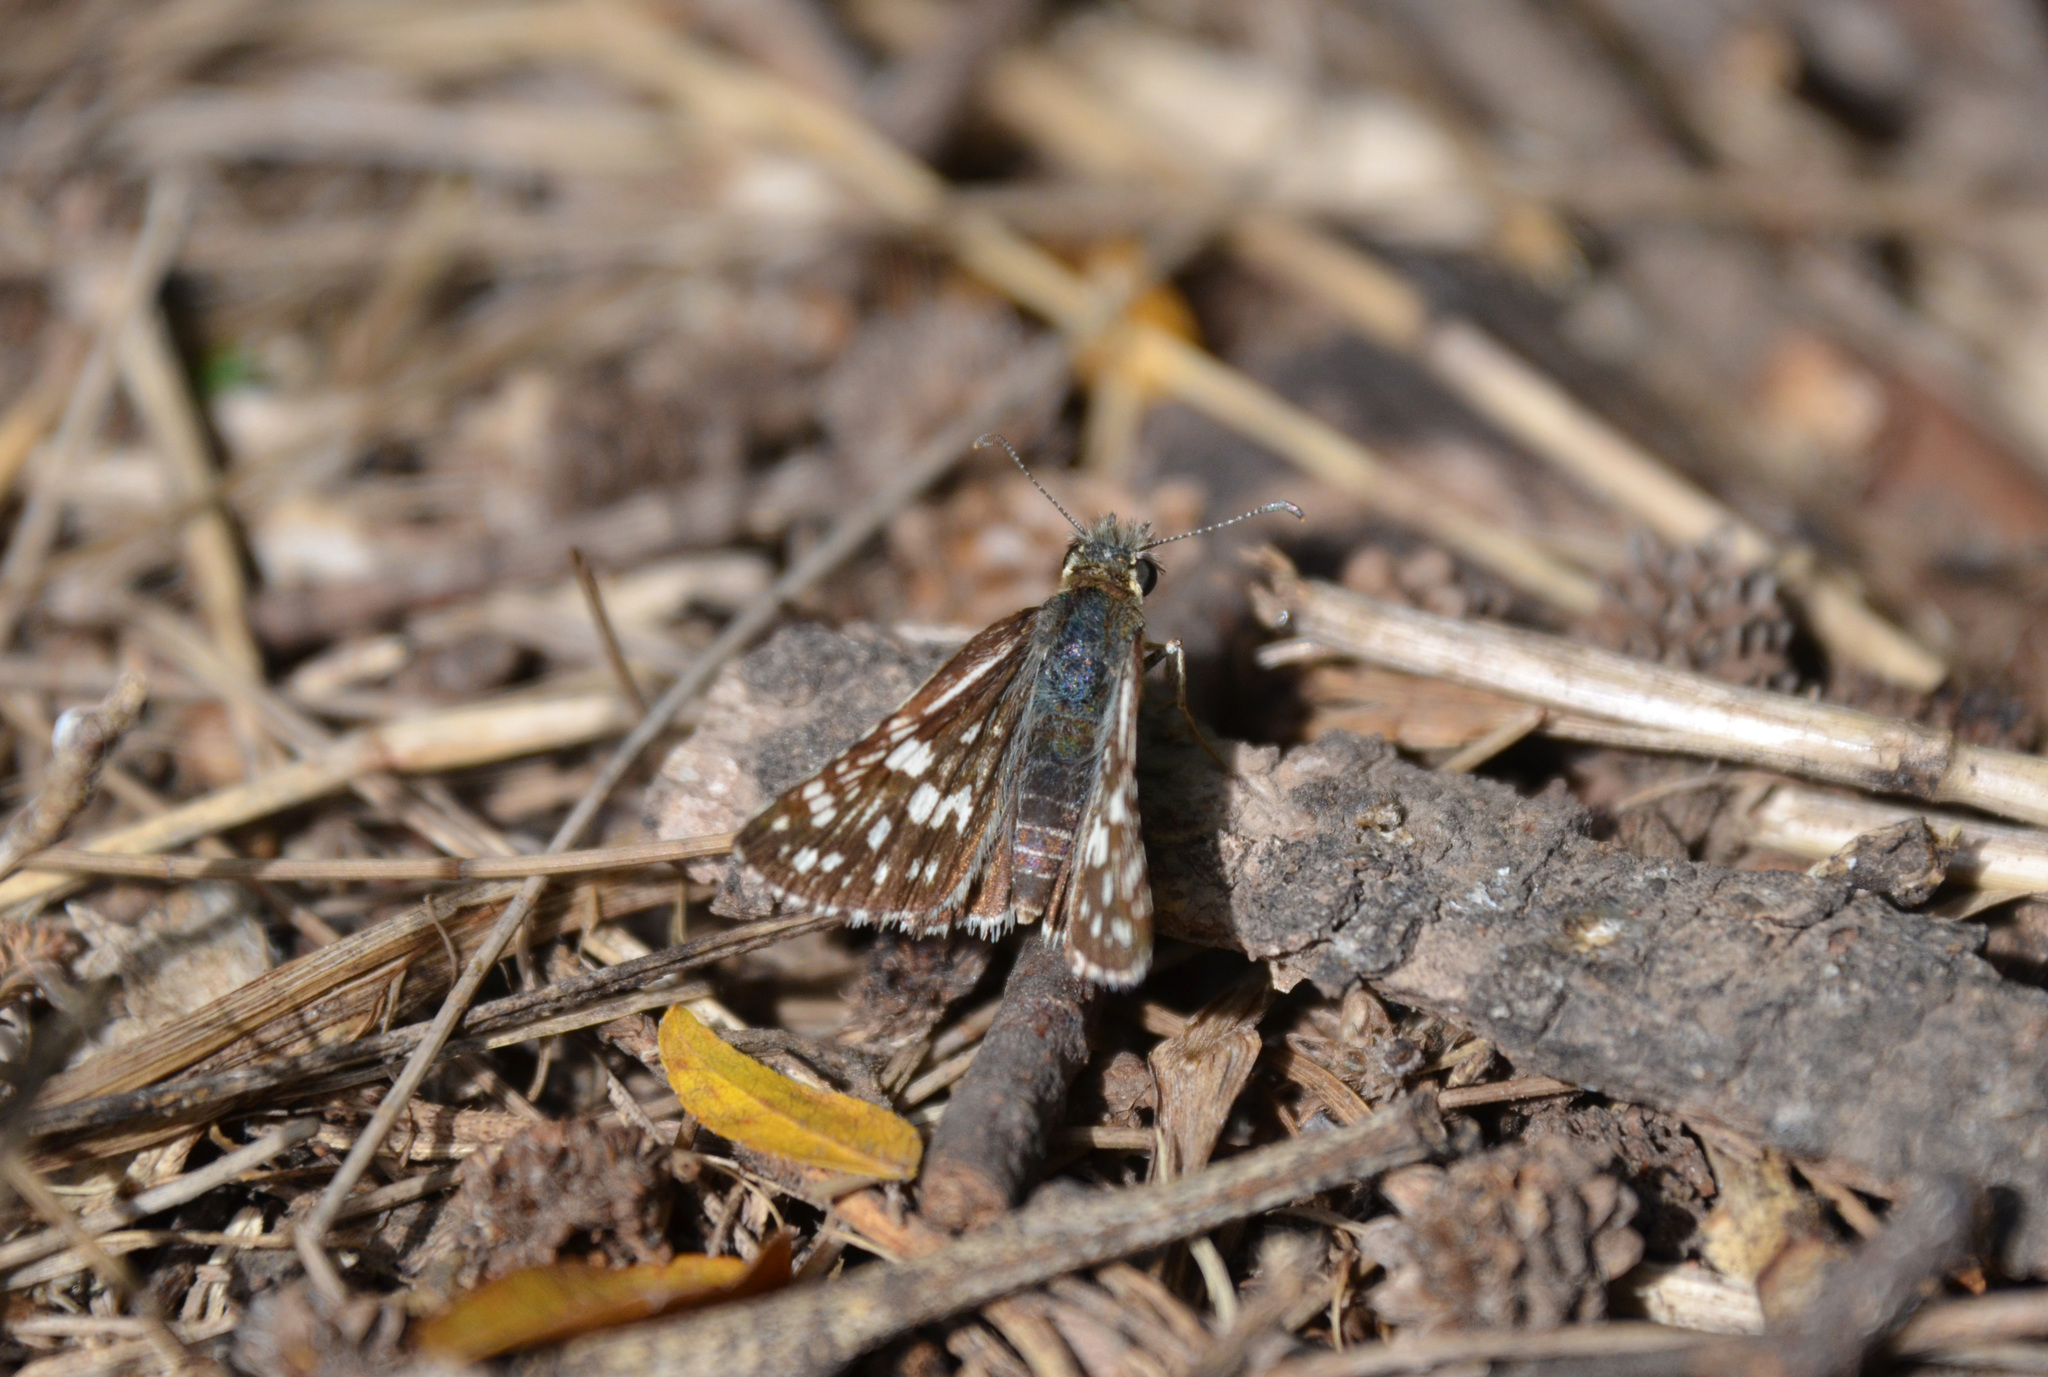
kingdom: Animalia
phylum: Arthropoda
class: Insecta
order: Lepidoptera
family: Hesperiidae
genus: Burnsius
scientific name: Burnsius orcynoides
